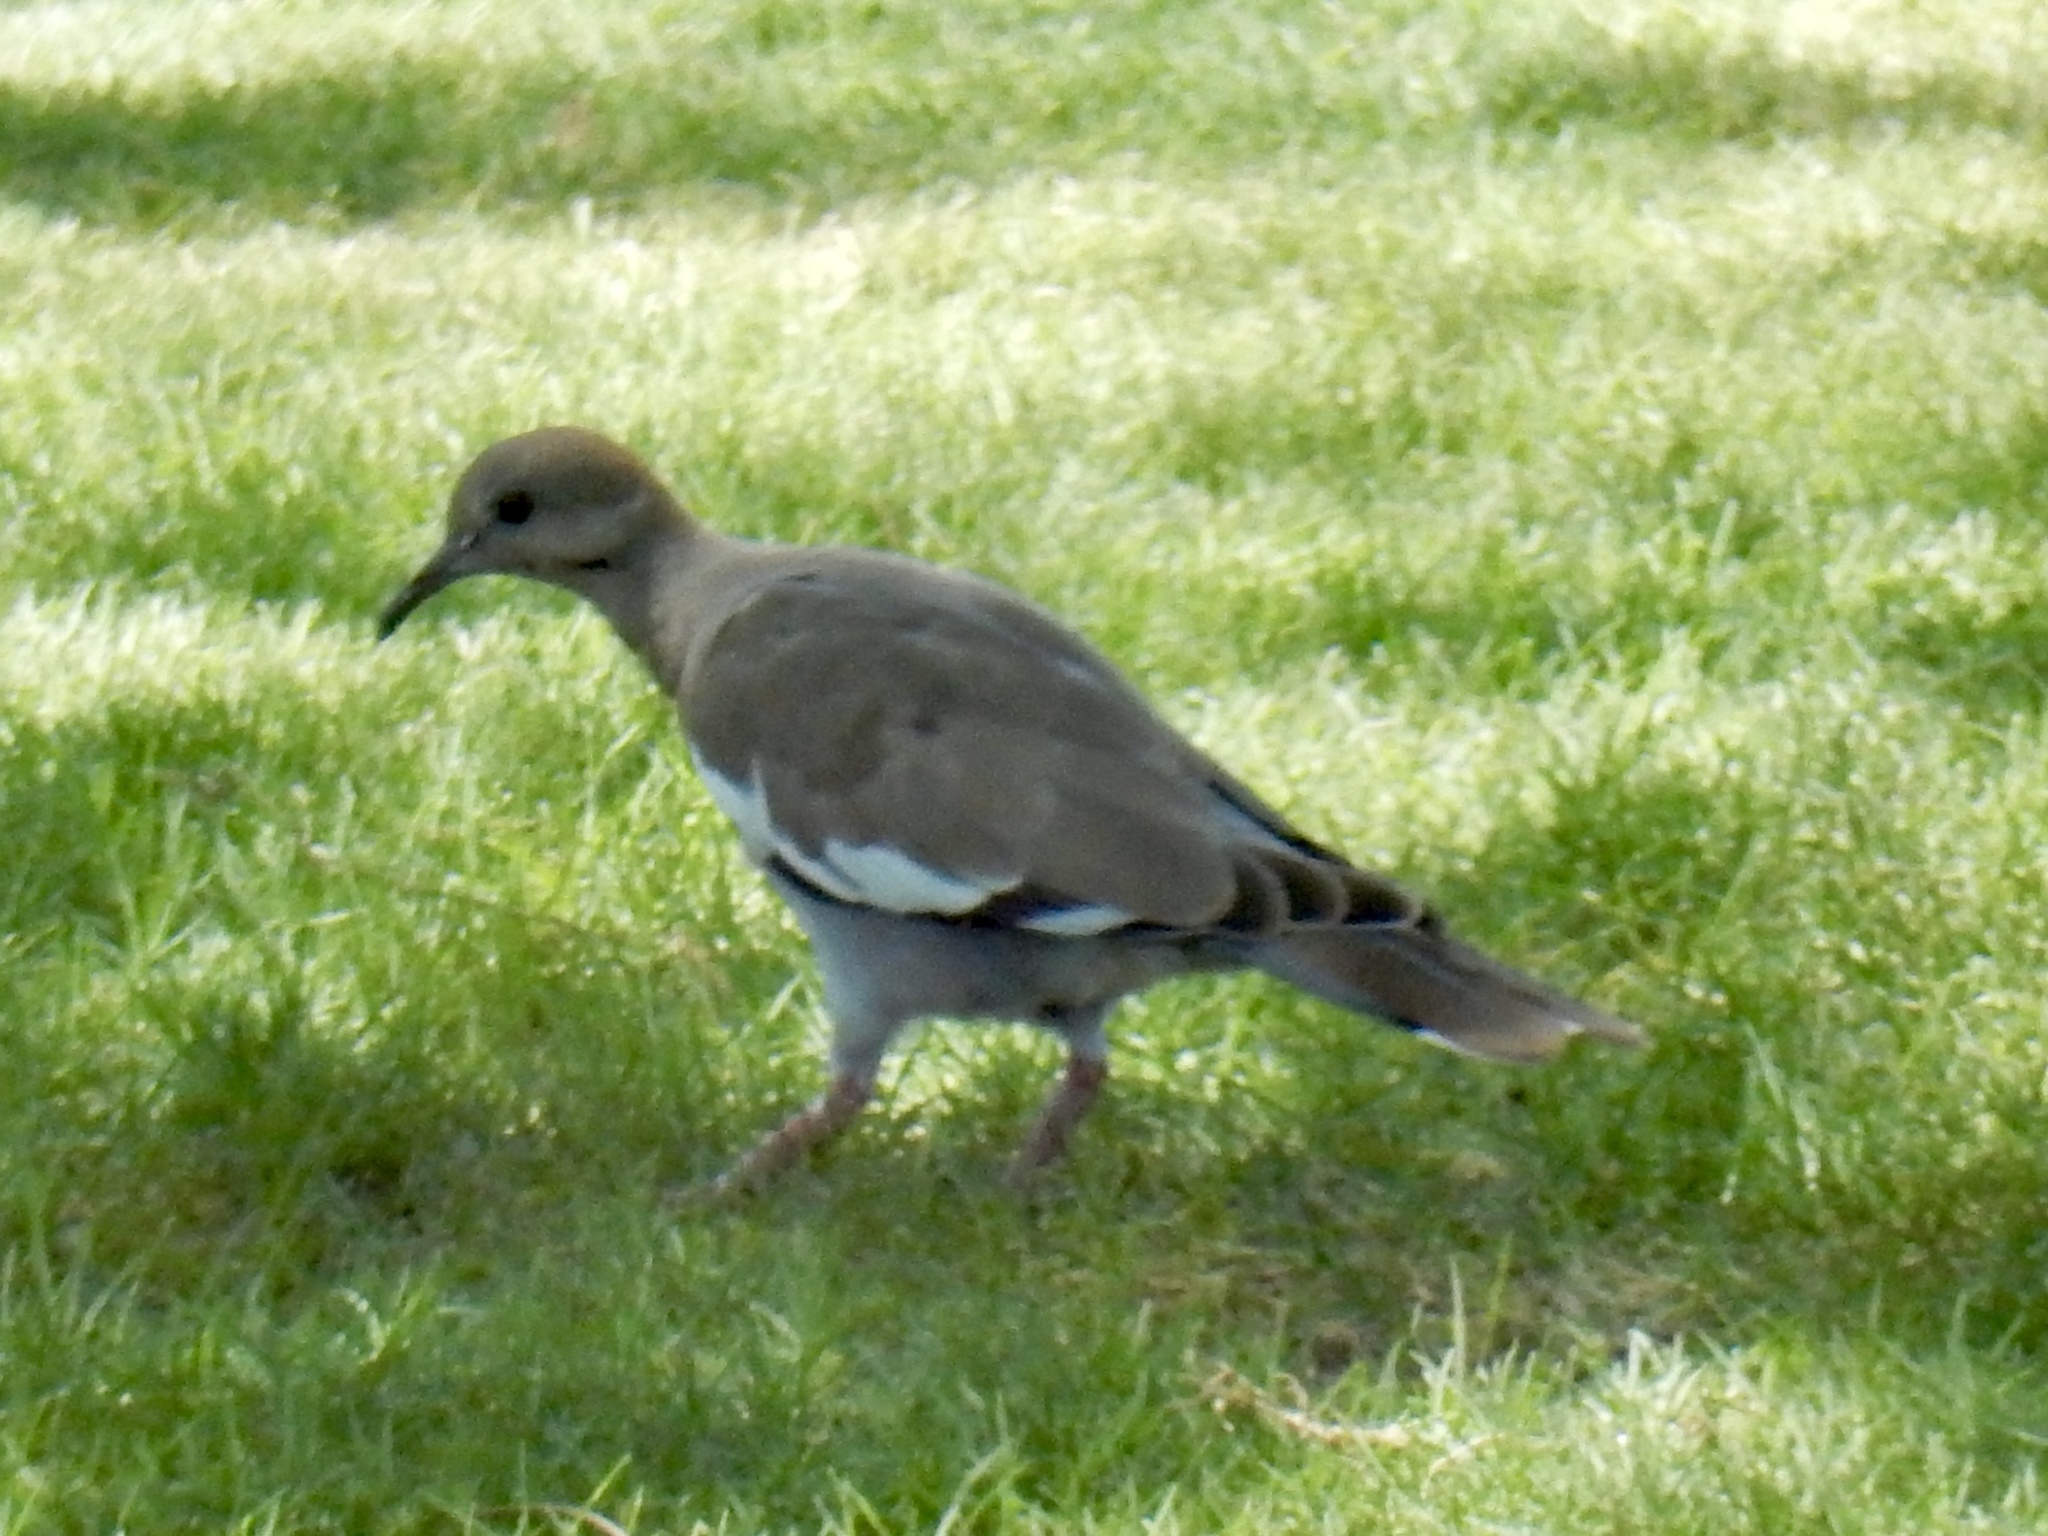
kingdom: Animalia
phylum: Chordata
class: Aves
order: Columbiformes
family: Columbidae
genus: Zenaida
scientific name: Zenaida asiatica
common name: White-winged dove
